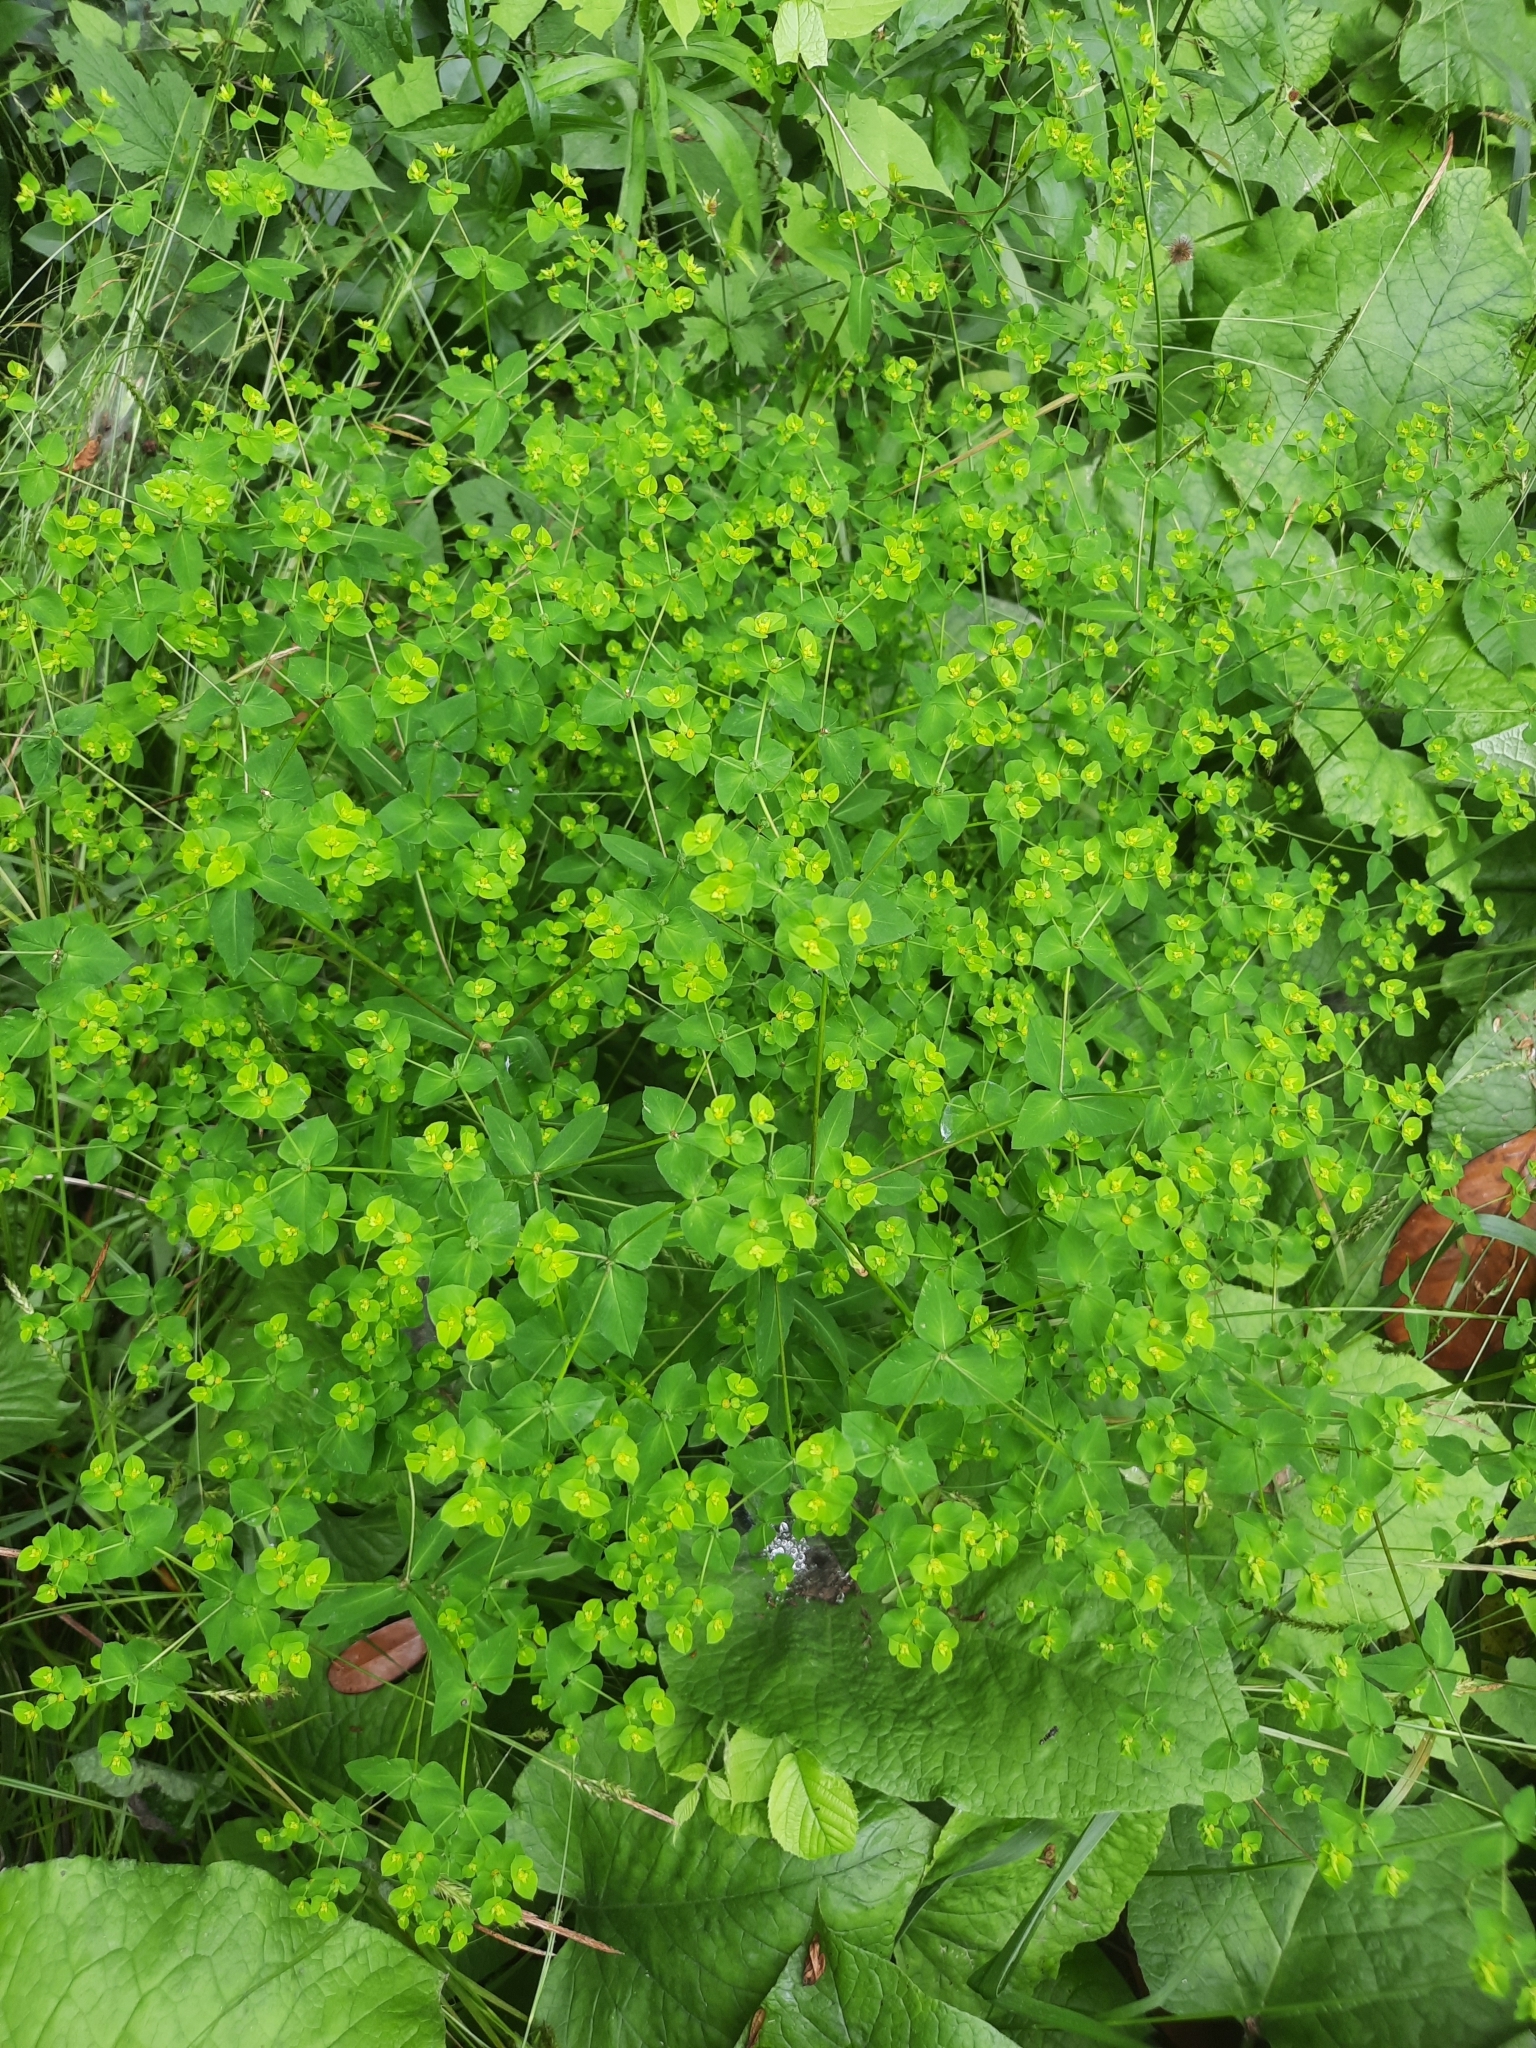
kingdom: Plantae
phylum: Tracheophyta
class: Magnoliopsida
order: Malpighiales
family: Euphorbiaceae
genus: Euphorbia
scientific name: Euphorbia stricta
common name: Upright spurge
